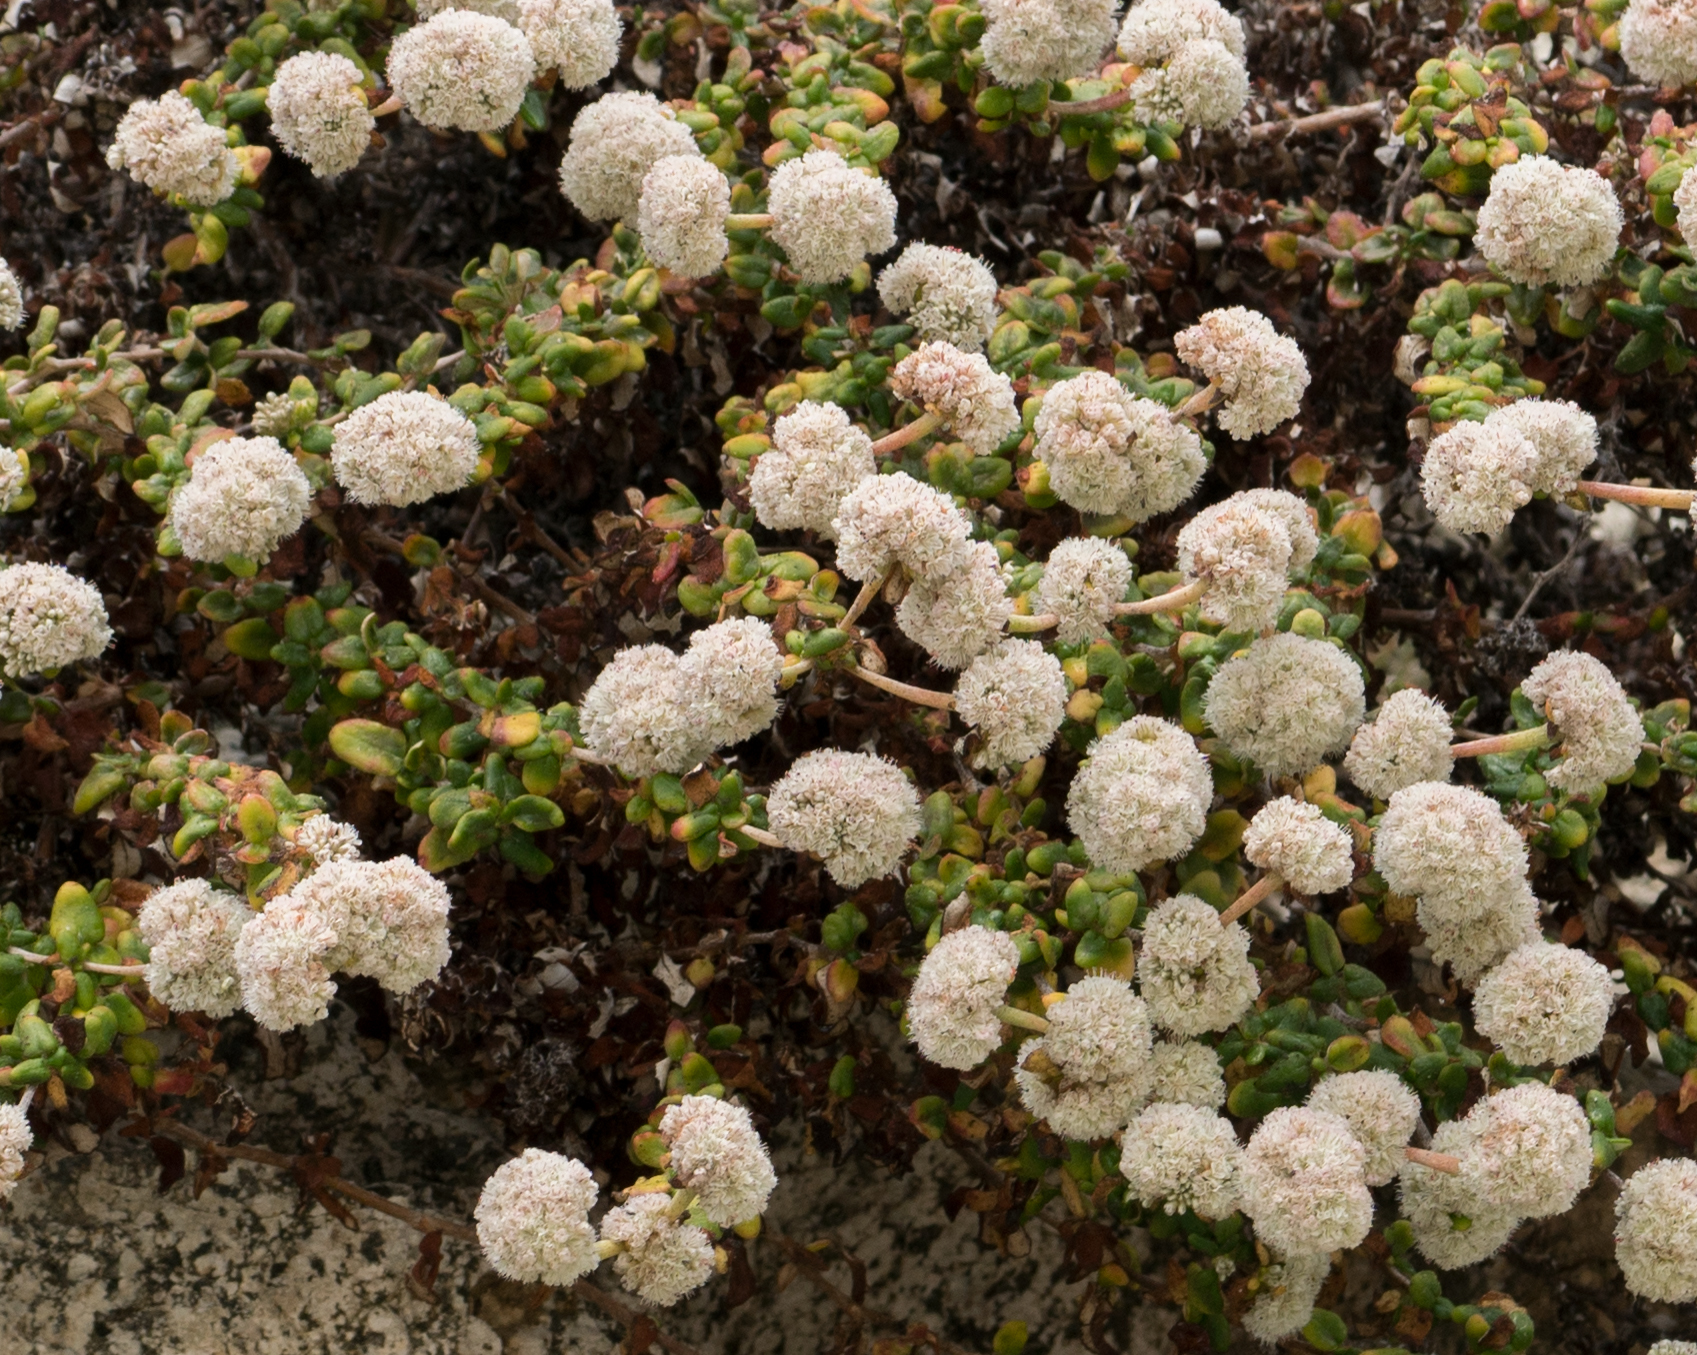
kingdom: Plantae
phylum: Tracheophyta
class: Magnoliopsida
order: Caryophyllales
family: Polygonaceae
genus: Eriogonum
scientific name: Eriogonum parvifolium
